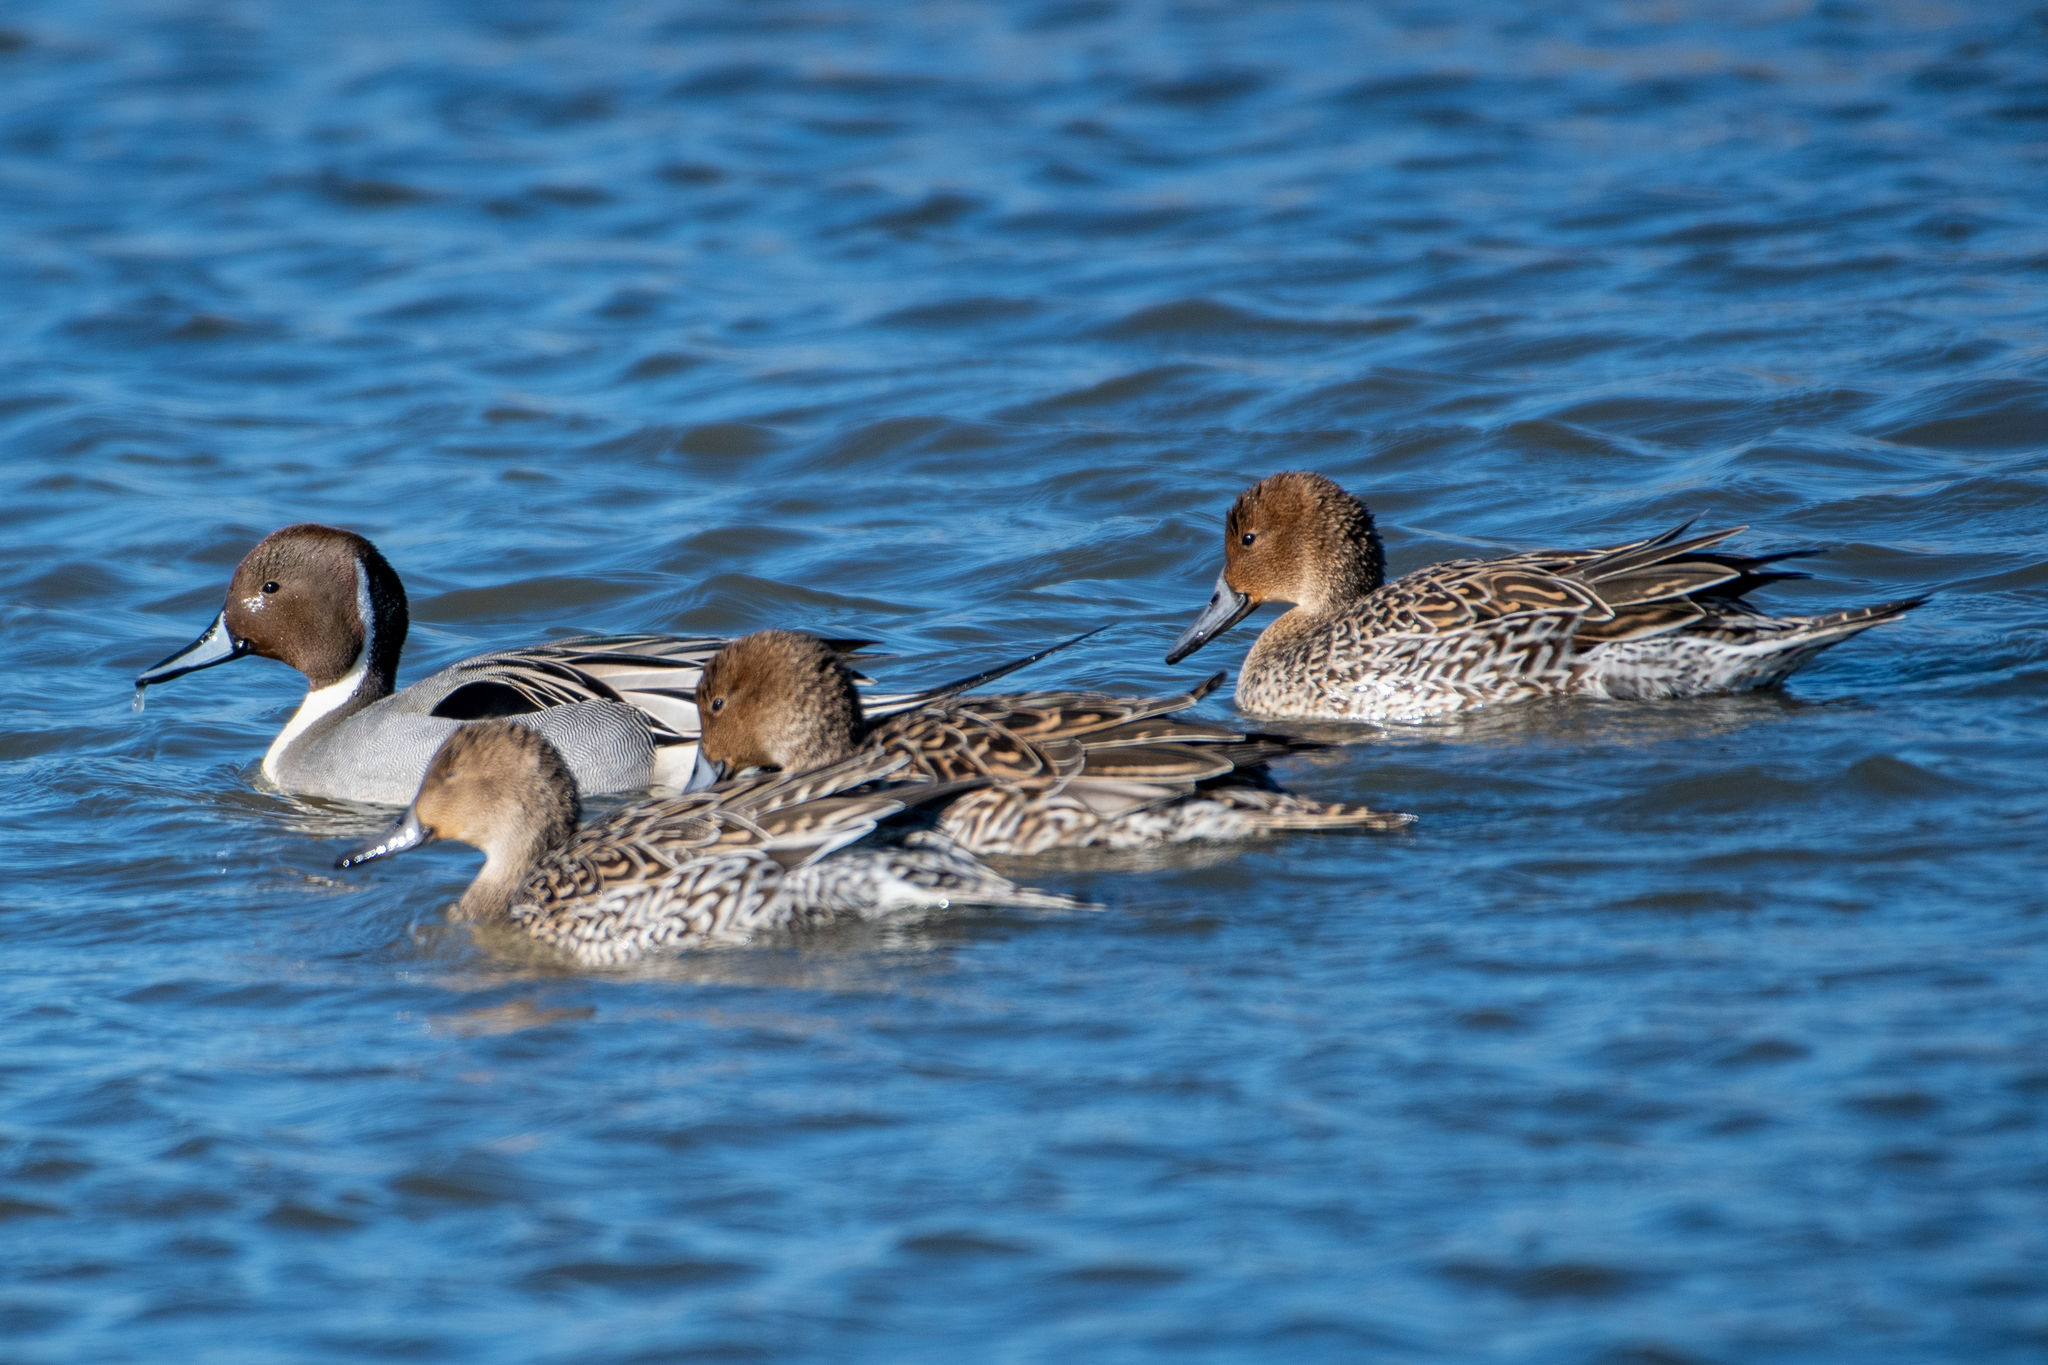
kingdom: Animalia
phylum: Chordata
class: Aves
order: Anseriformes
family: Anatidae
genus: Anas
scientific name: Anas acuta
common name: Northern pintail
